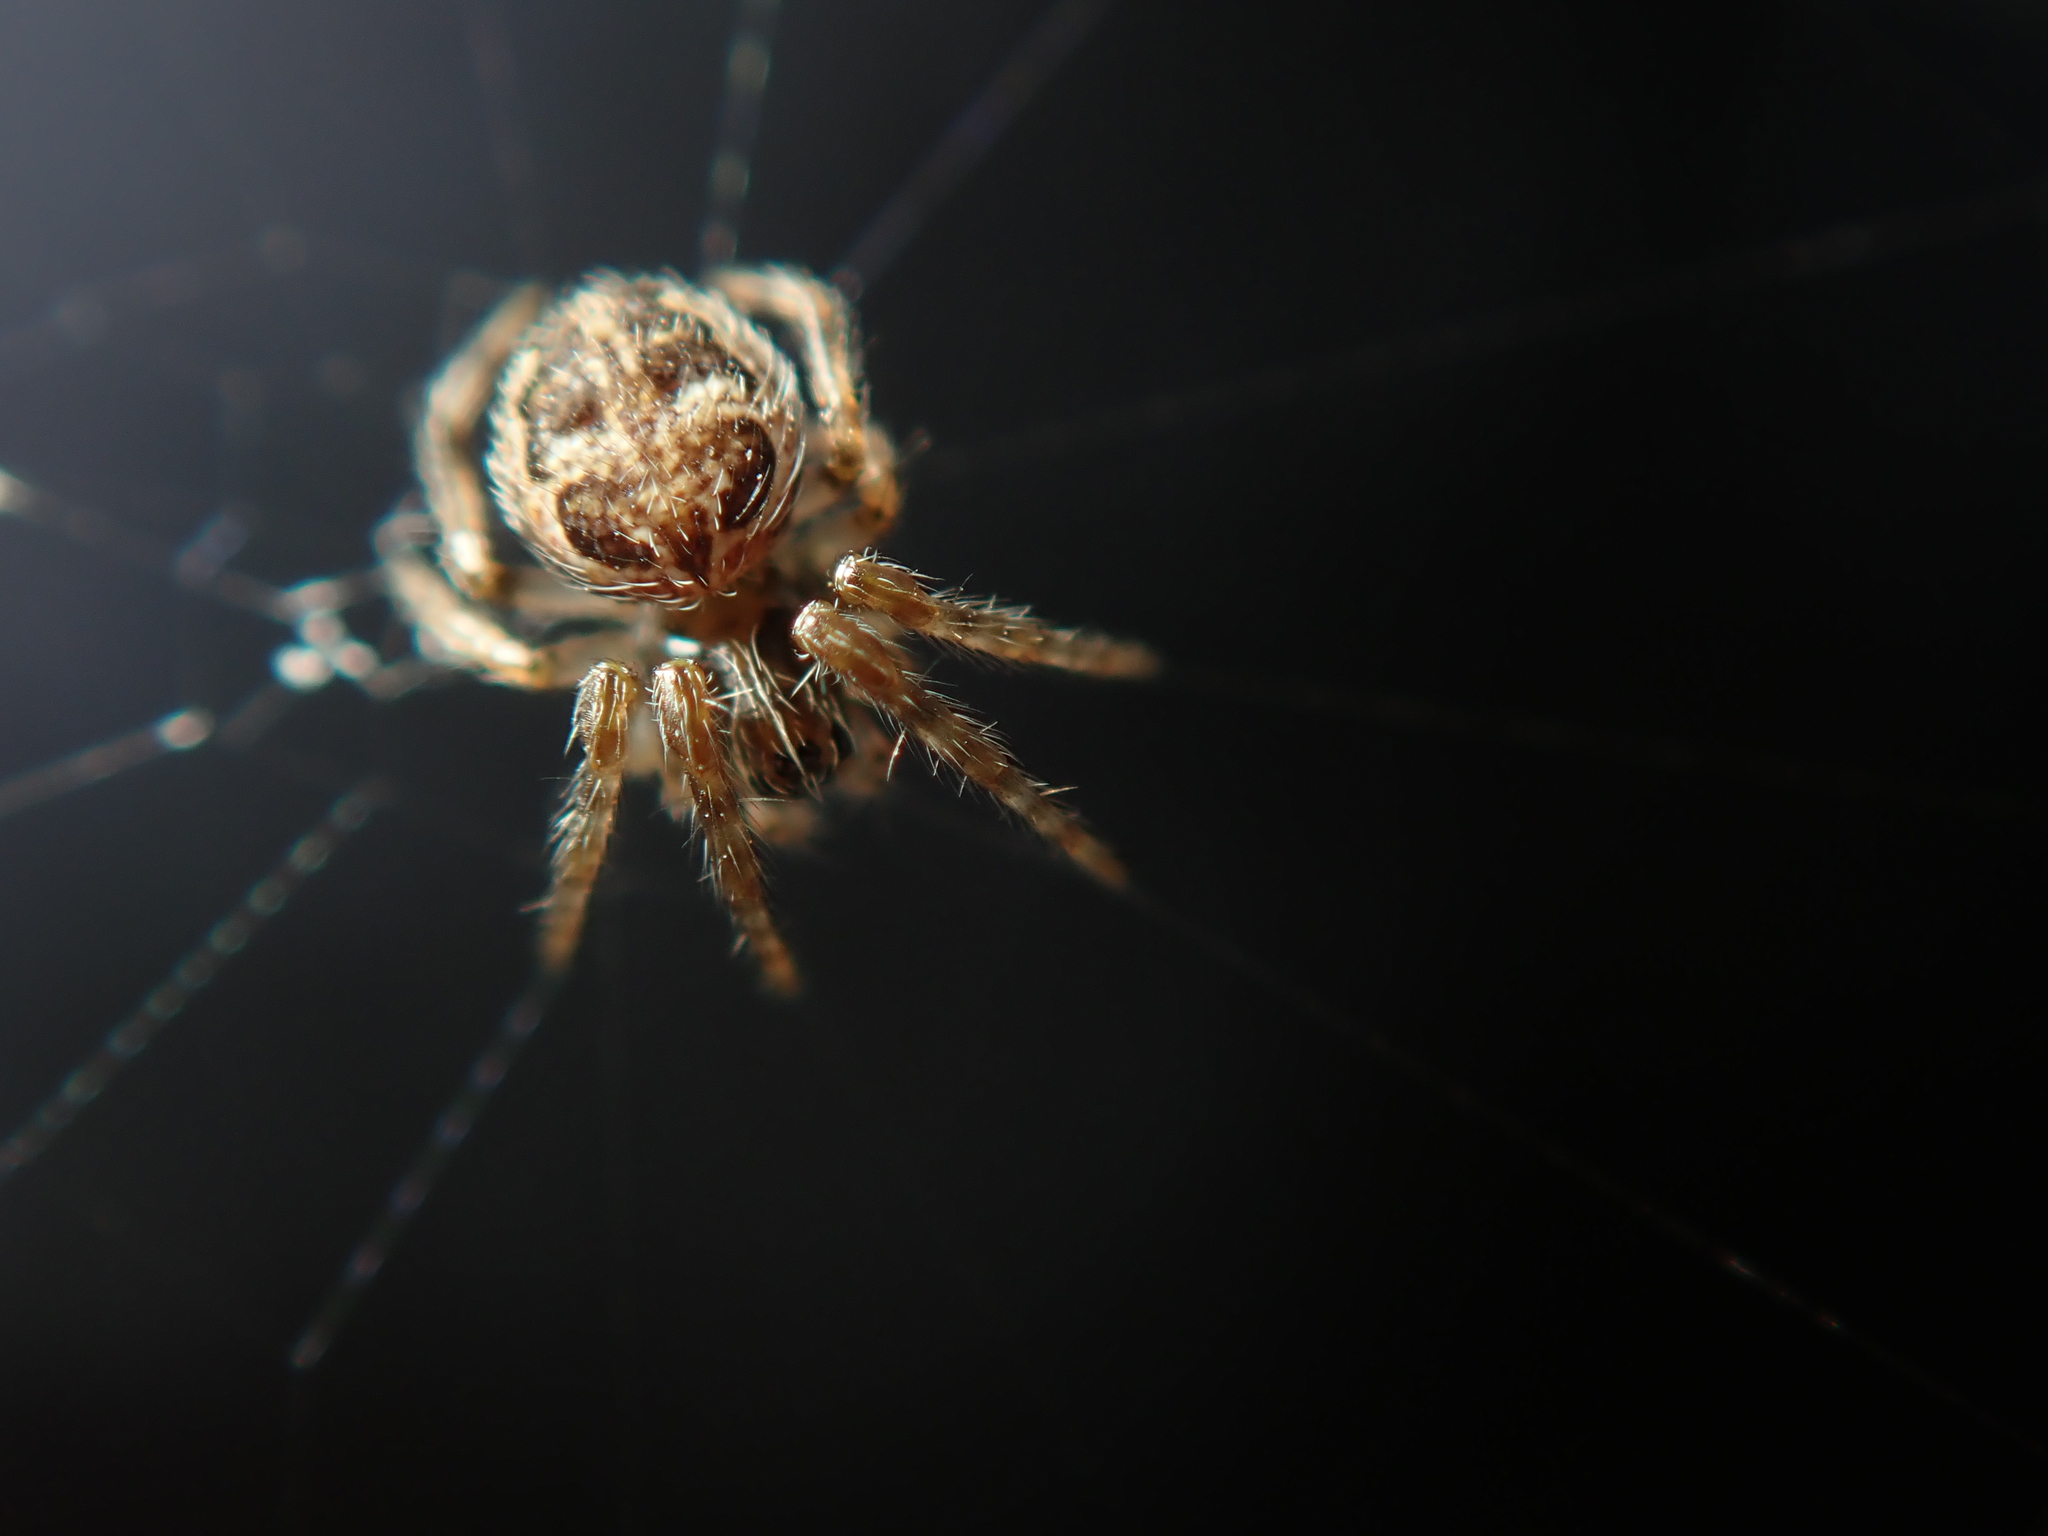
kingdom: Animalia
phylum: Arthropoda
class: Arachnida
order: Araneae
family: Araneidae
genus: Larinioides
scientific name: Larinioides sclopetarius
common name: Bridge orbweaver
